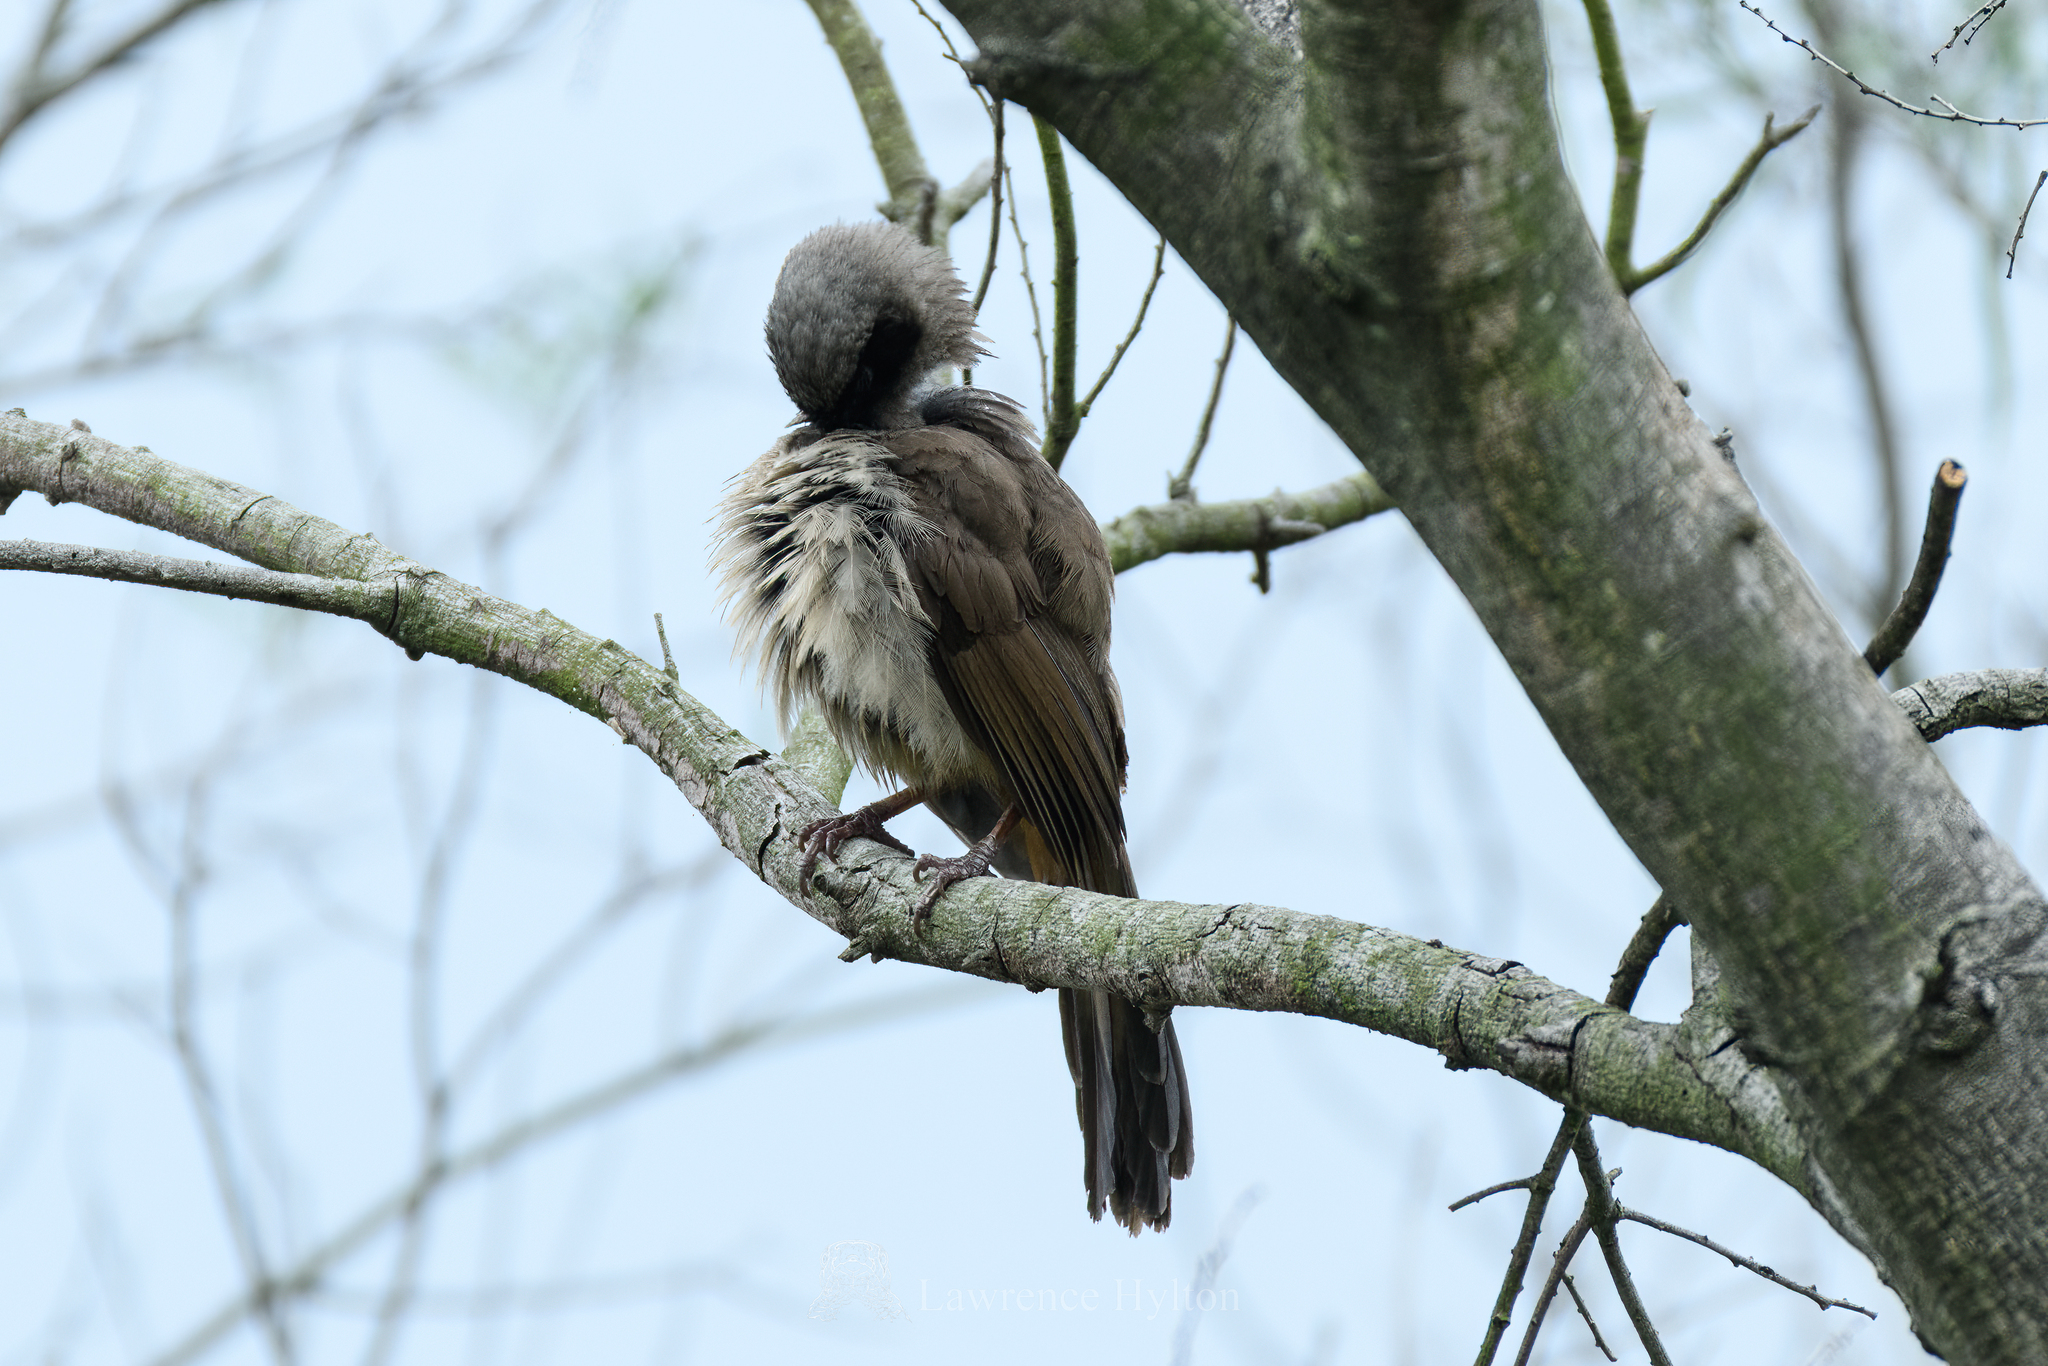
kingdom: Animalia
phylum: Chordata
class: Aves
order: Passeriformes
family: Leiothrichidae
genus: Garrulax
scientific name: Garrulax perspicillatus
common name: Masked laughingthrush
